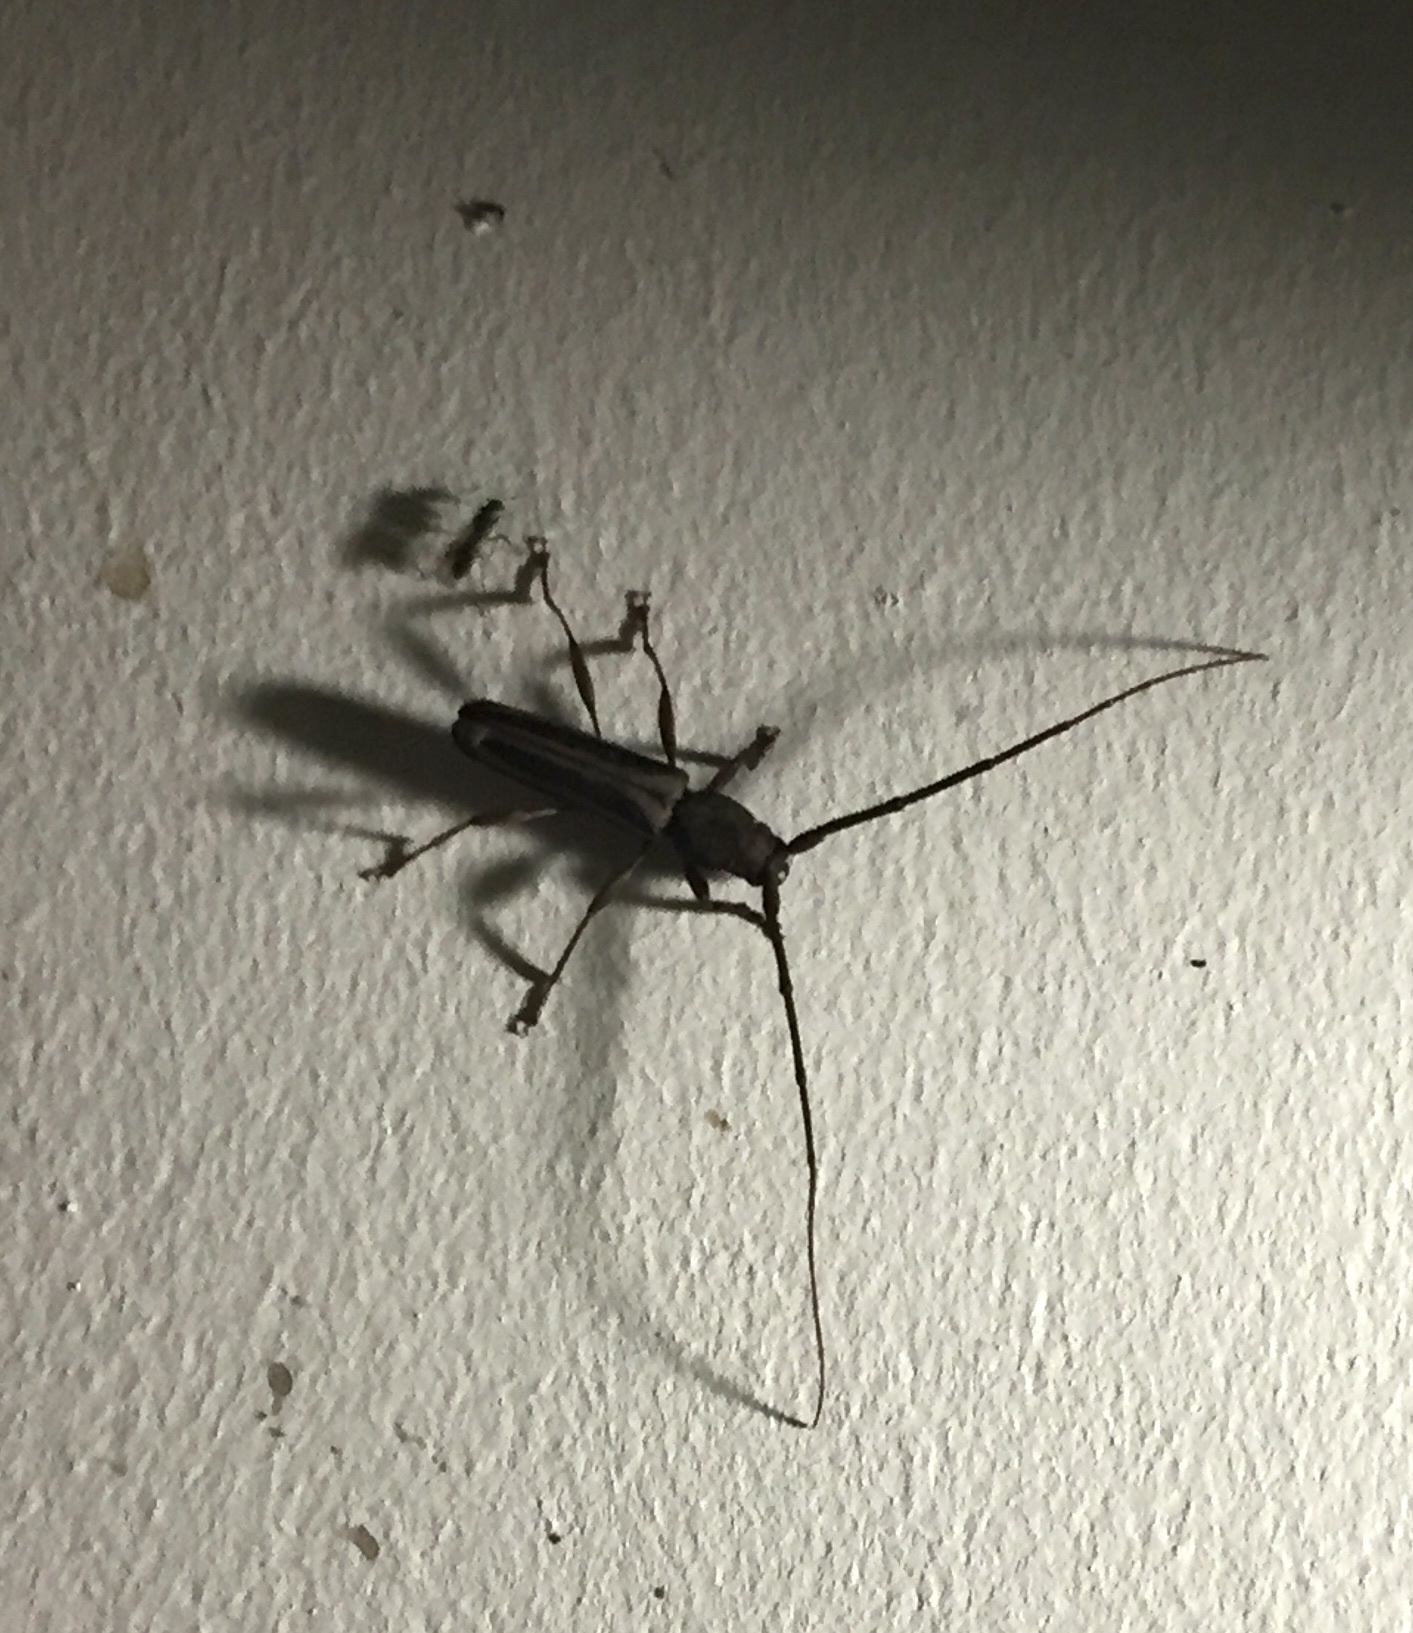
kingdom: Animalia
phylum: Arthropoda
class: Insecta
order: Coleoptera
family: Cerambycidae
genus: Xystrocera
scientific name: Xystrocera dispar
